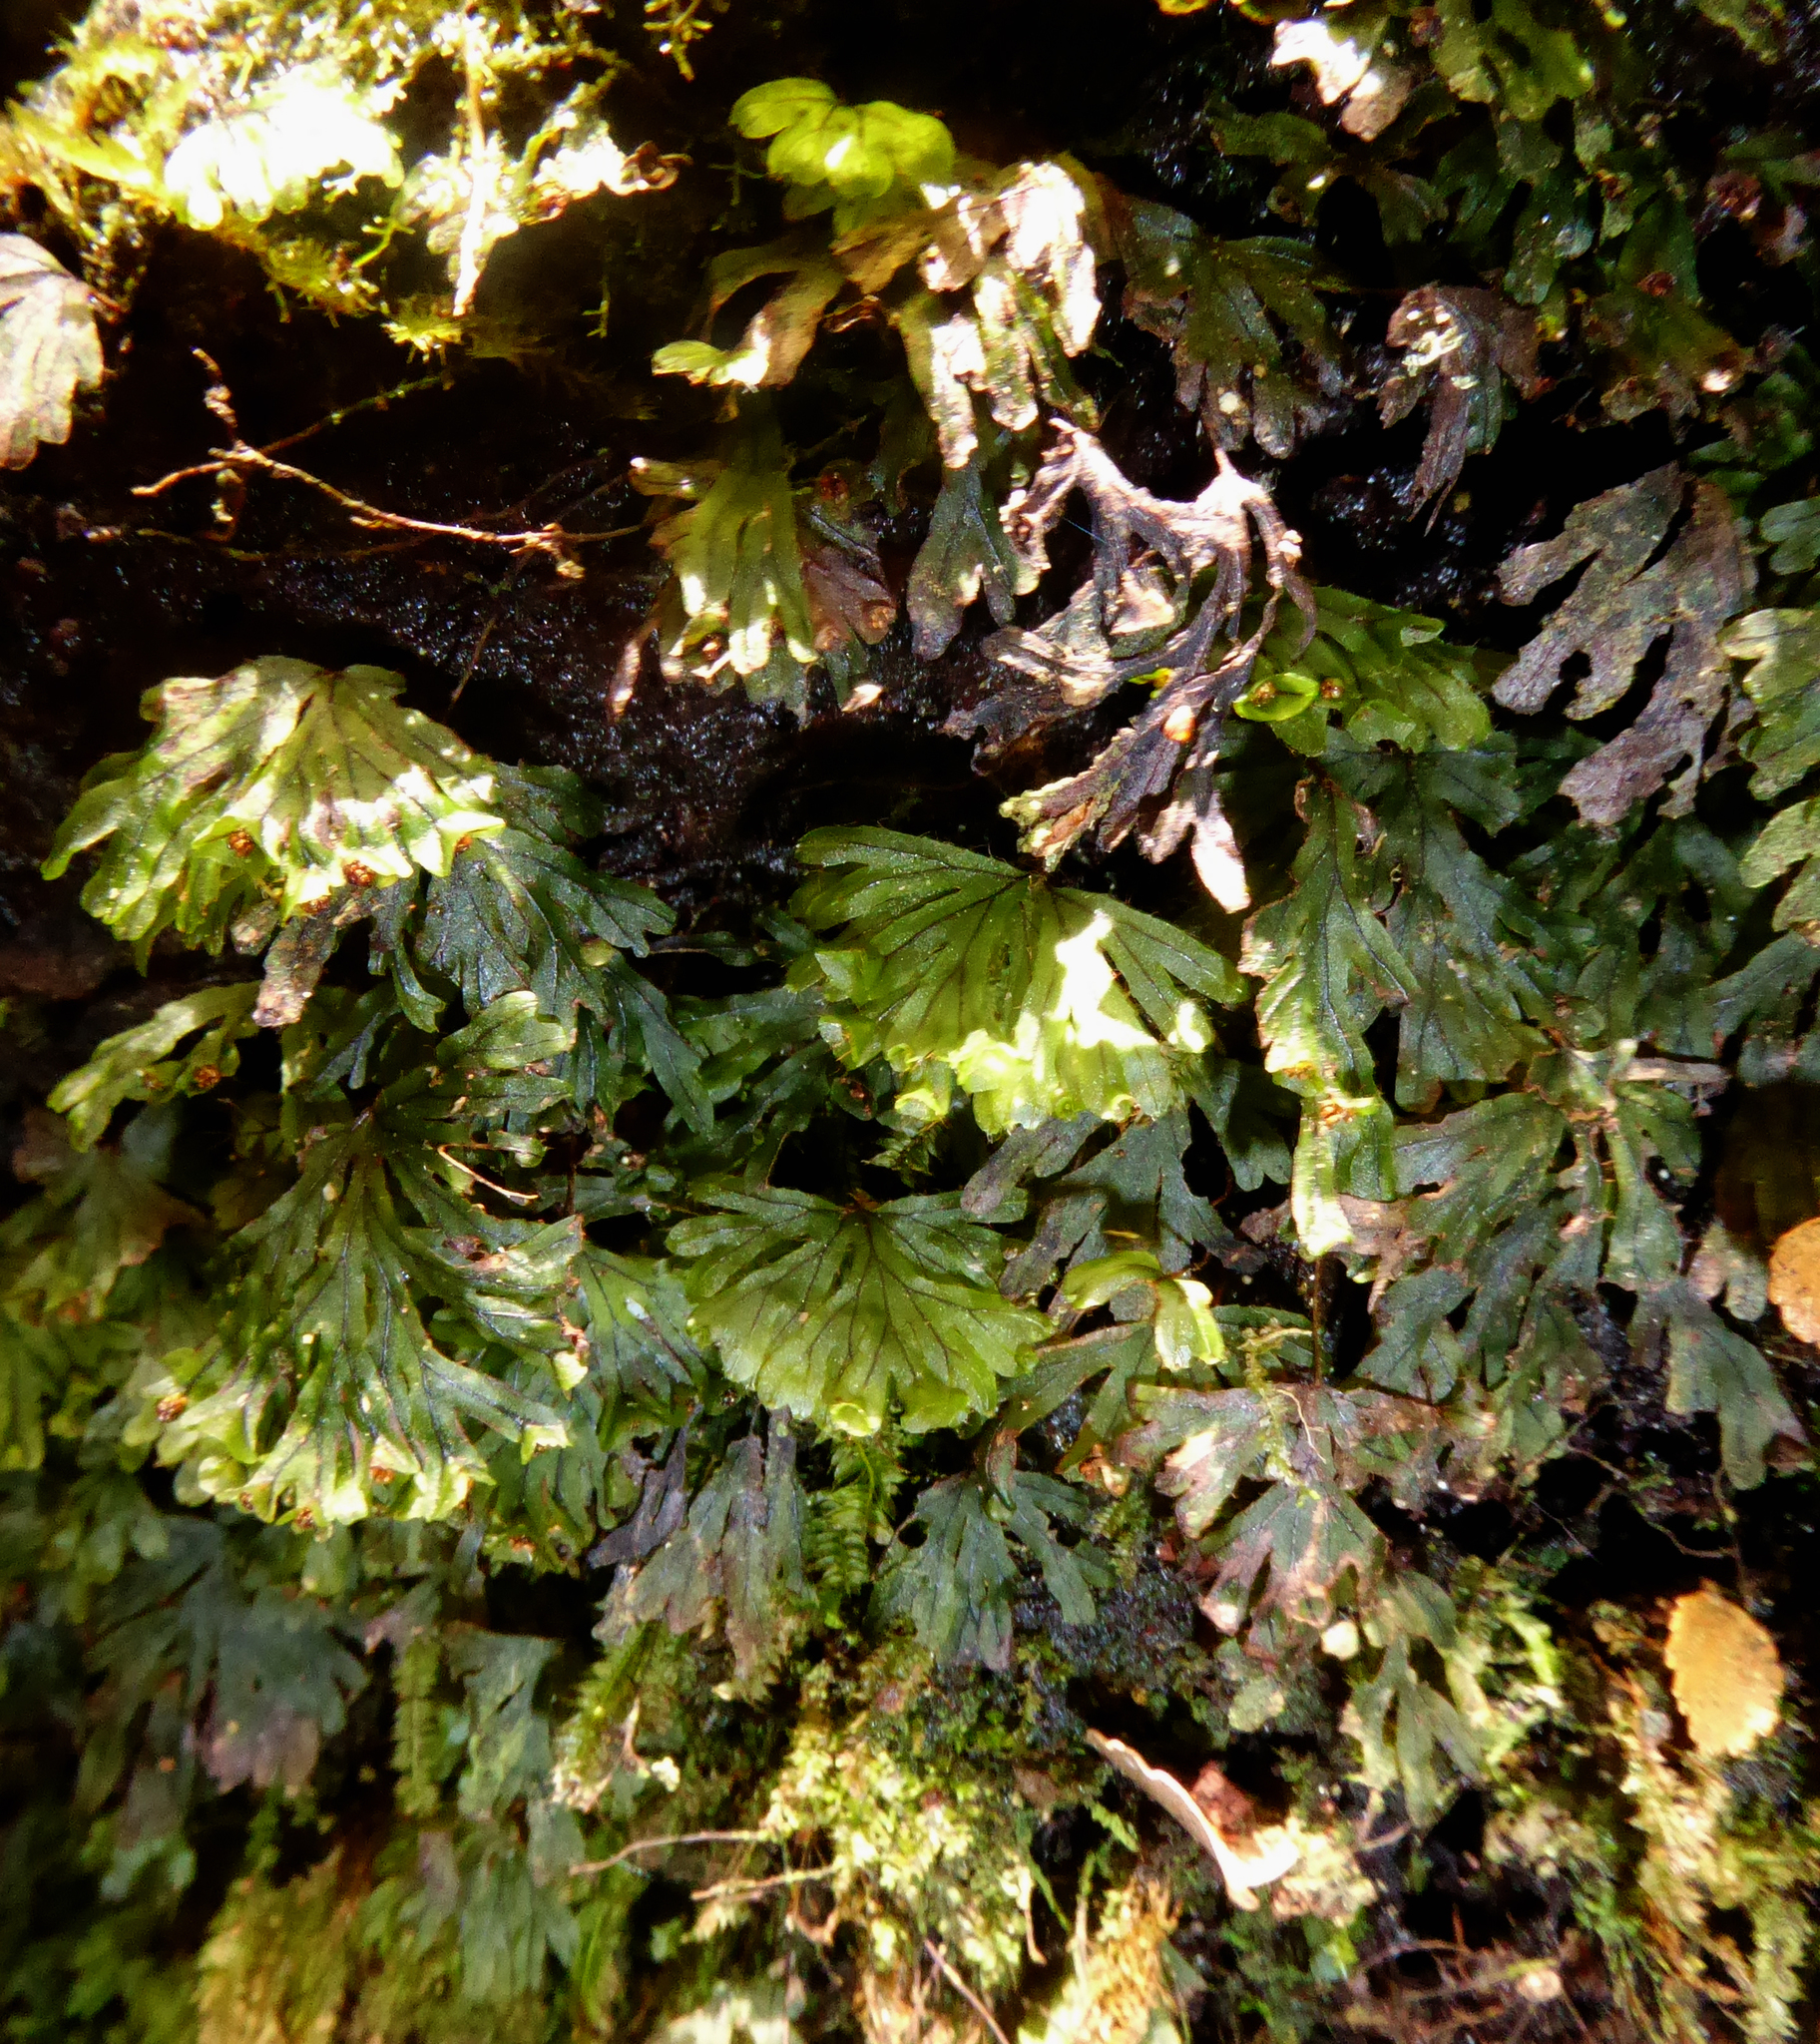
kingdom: Plantae
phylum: Tracheophyta
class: Polypodiopsida
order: Hymenophyllales
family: Hymenophyllaceae
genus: Hymenophyllum
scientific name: Hymenophyllum lyallii
